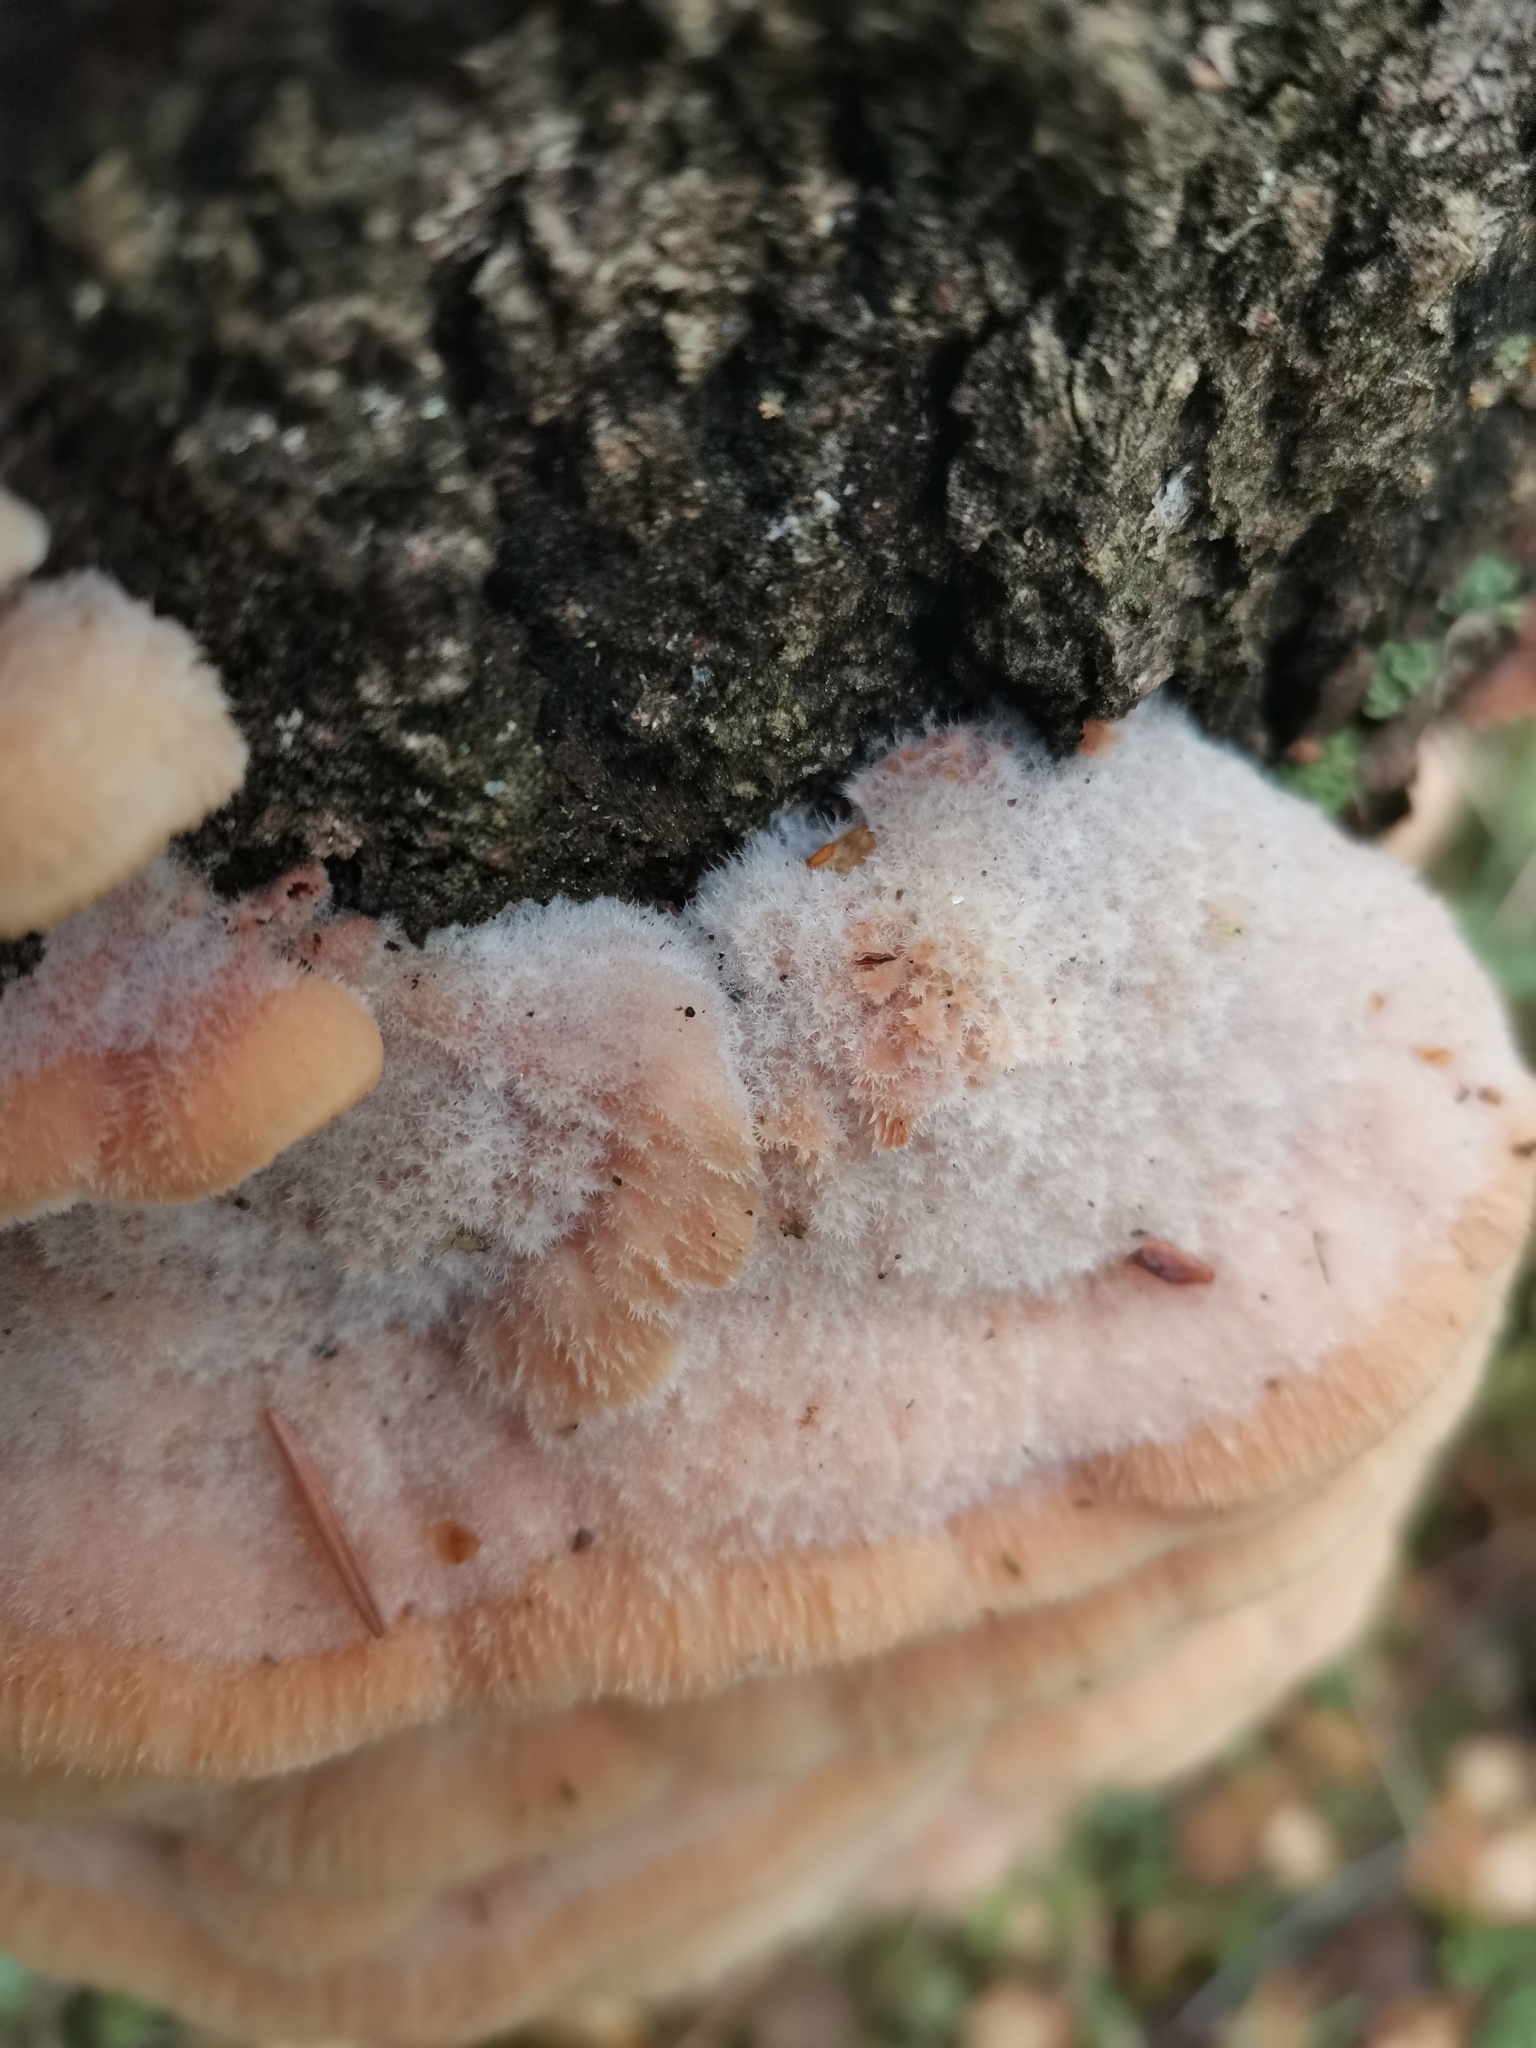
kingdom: Fungi
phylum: Basidiomycota
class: Agaricomycetes
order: Polyporales
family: Meruliaceae
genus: Phlebia
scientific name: Phlebia tremellosa
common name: Jelly rot
